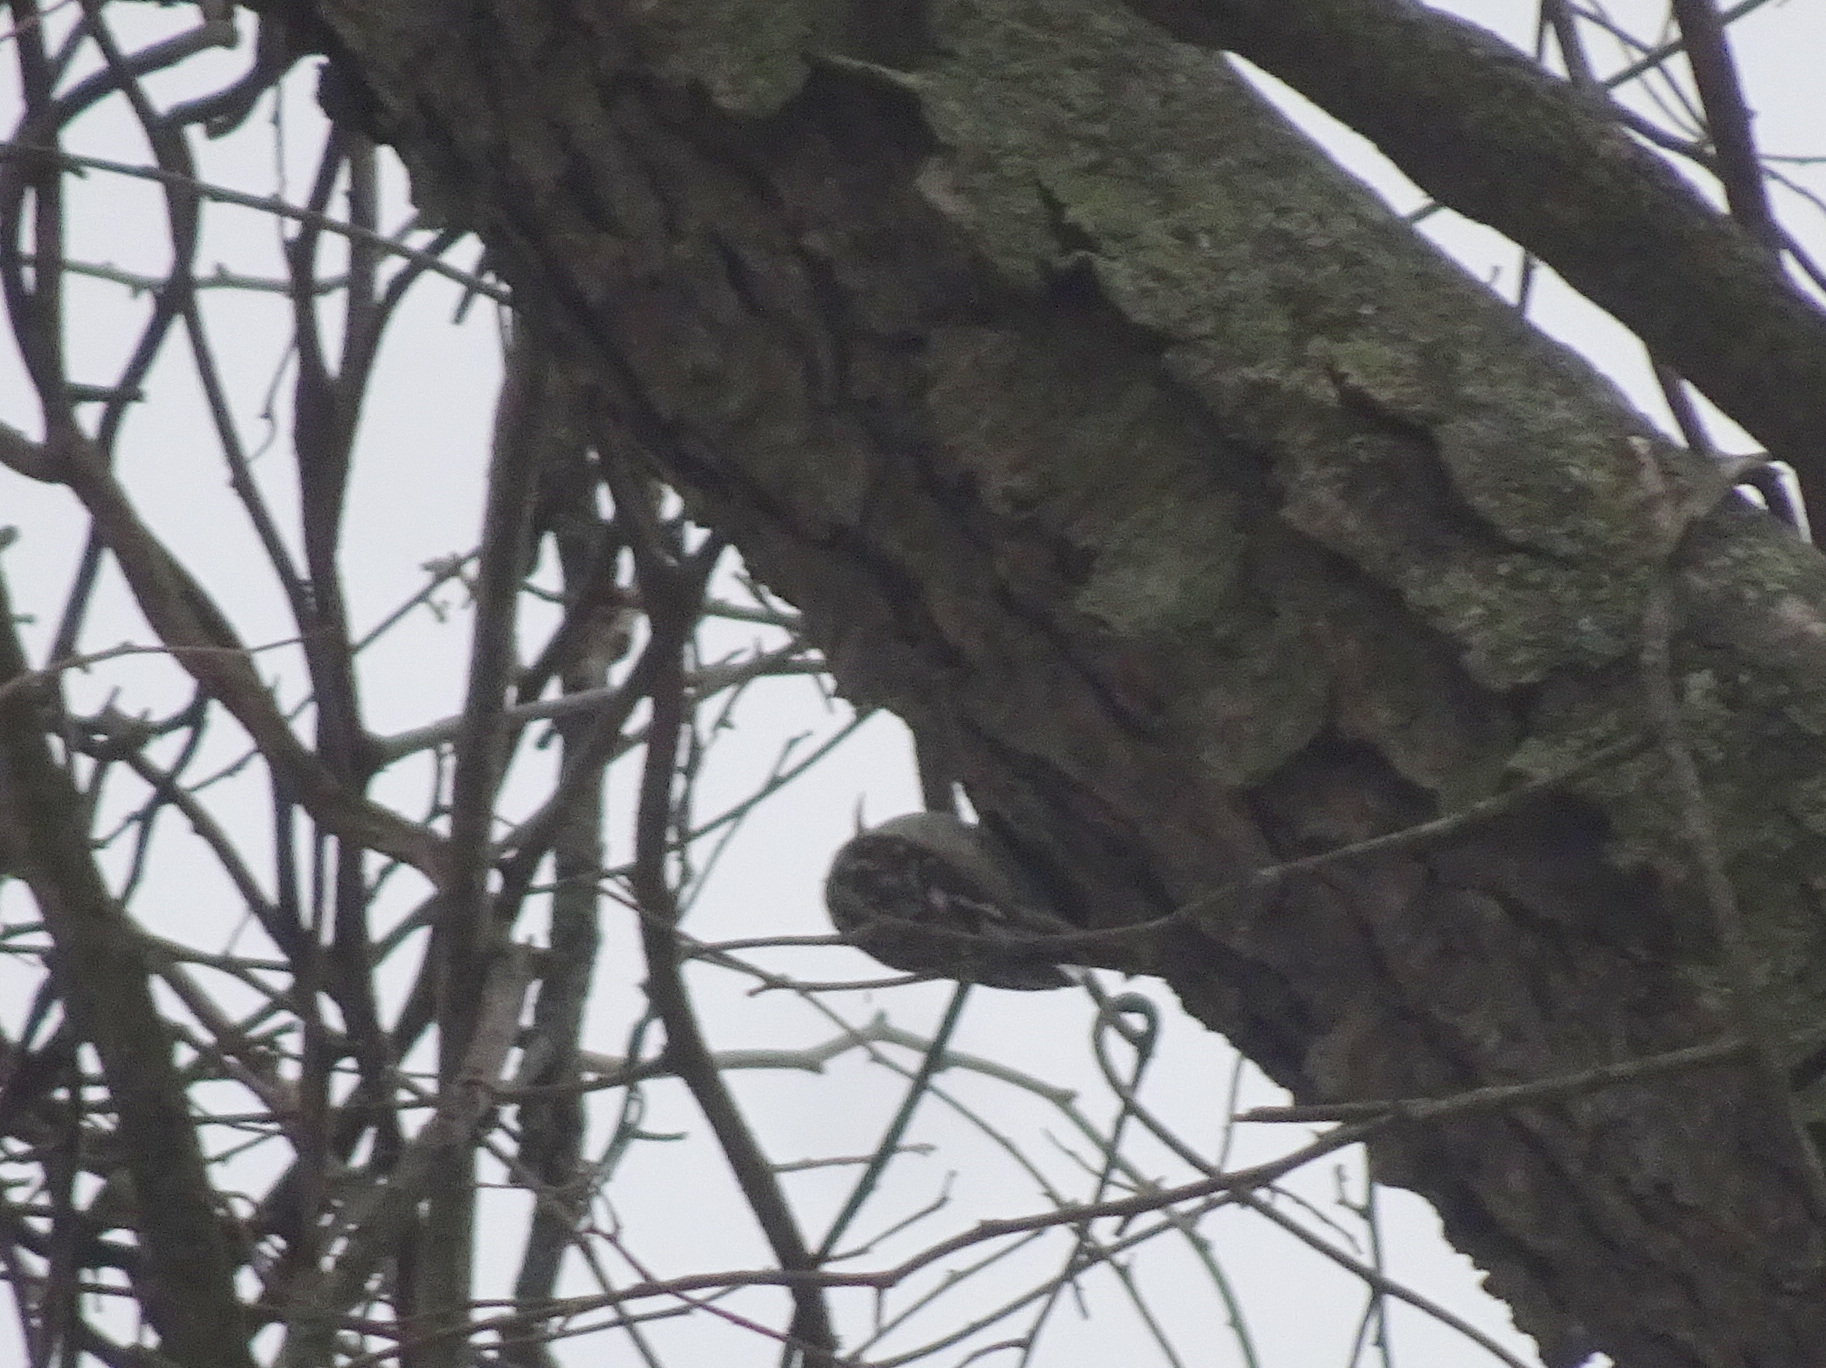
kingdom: Animalia
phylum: Chordata
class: Aves
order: Passeriformes
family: Certhiidae
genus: Certhia
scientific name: Certhia americana
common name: Brown creeper
